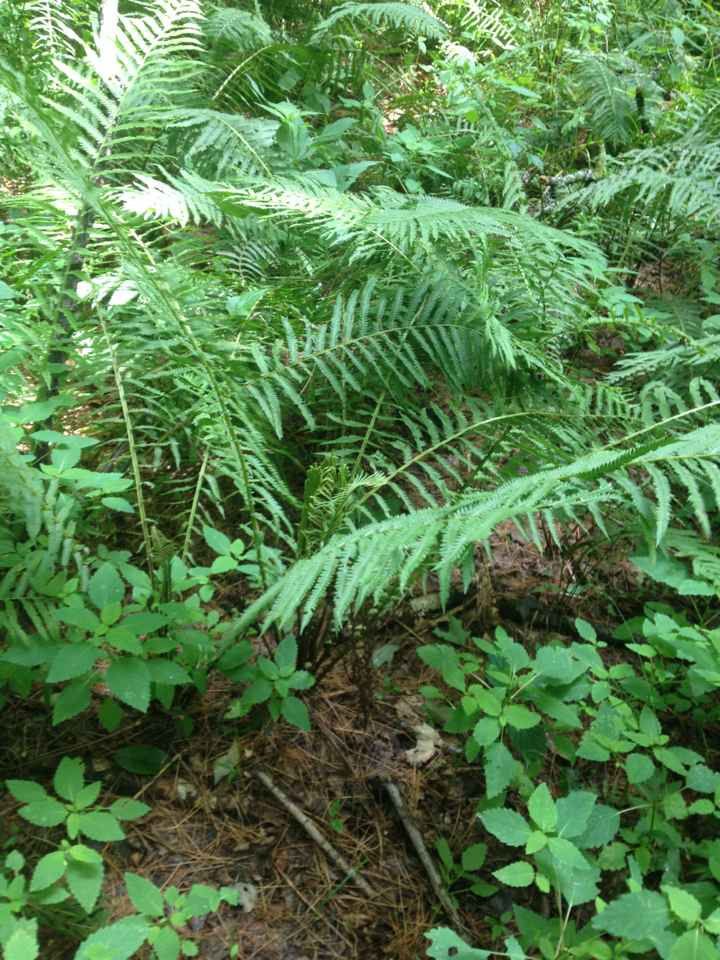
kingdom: Plantae
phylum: Tracheophyta
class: Polypodiopsida
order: Polypodiales
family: Onocleaceae
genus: Matteuccia
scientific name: Matteuccia struthiopteris
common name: Ostrich fern
